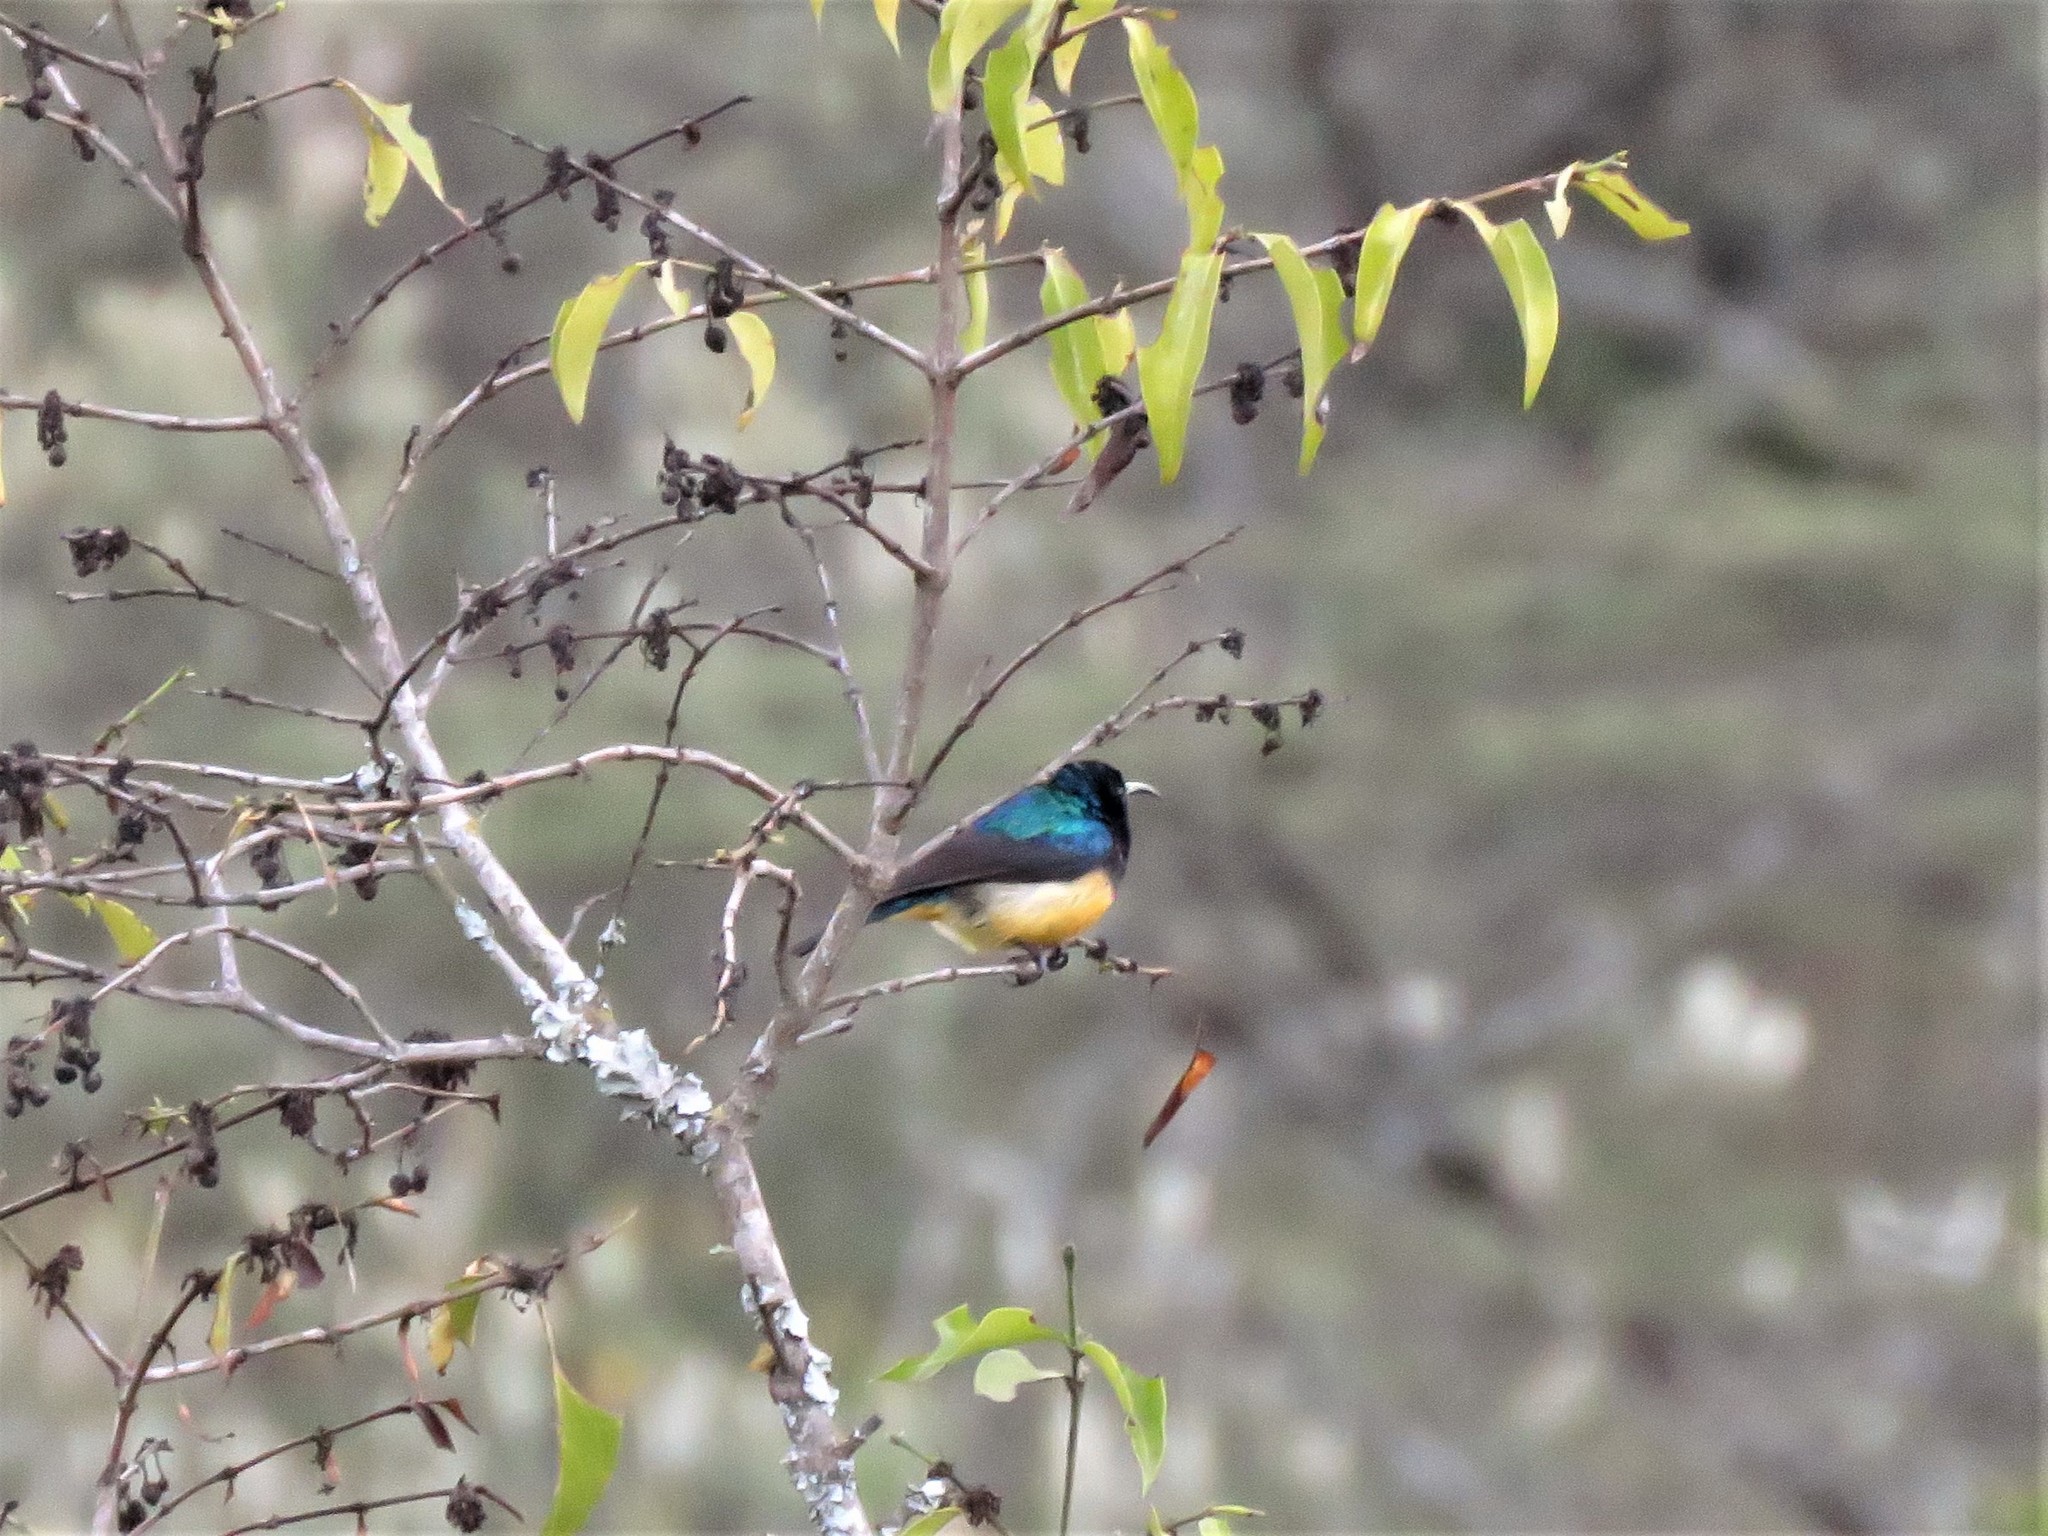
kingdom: Animalia
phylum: Chordata
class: Aves
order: Passeriformes
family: Nectariniidae
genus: Cinnyris
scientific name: Cinnyris venustus
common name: Variable sunbird
